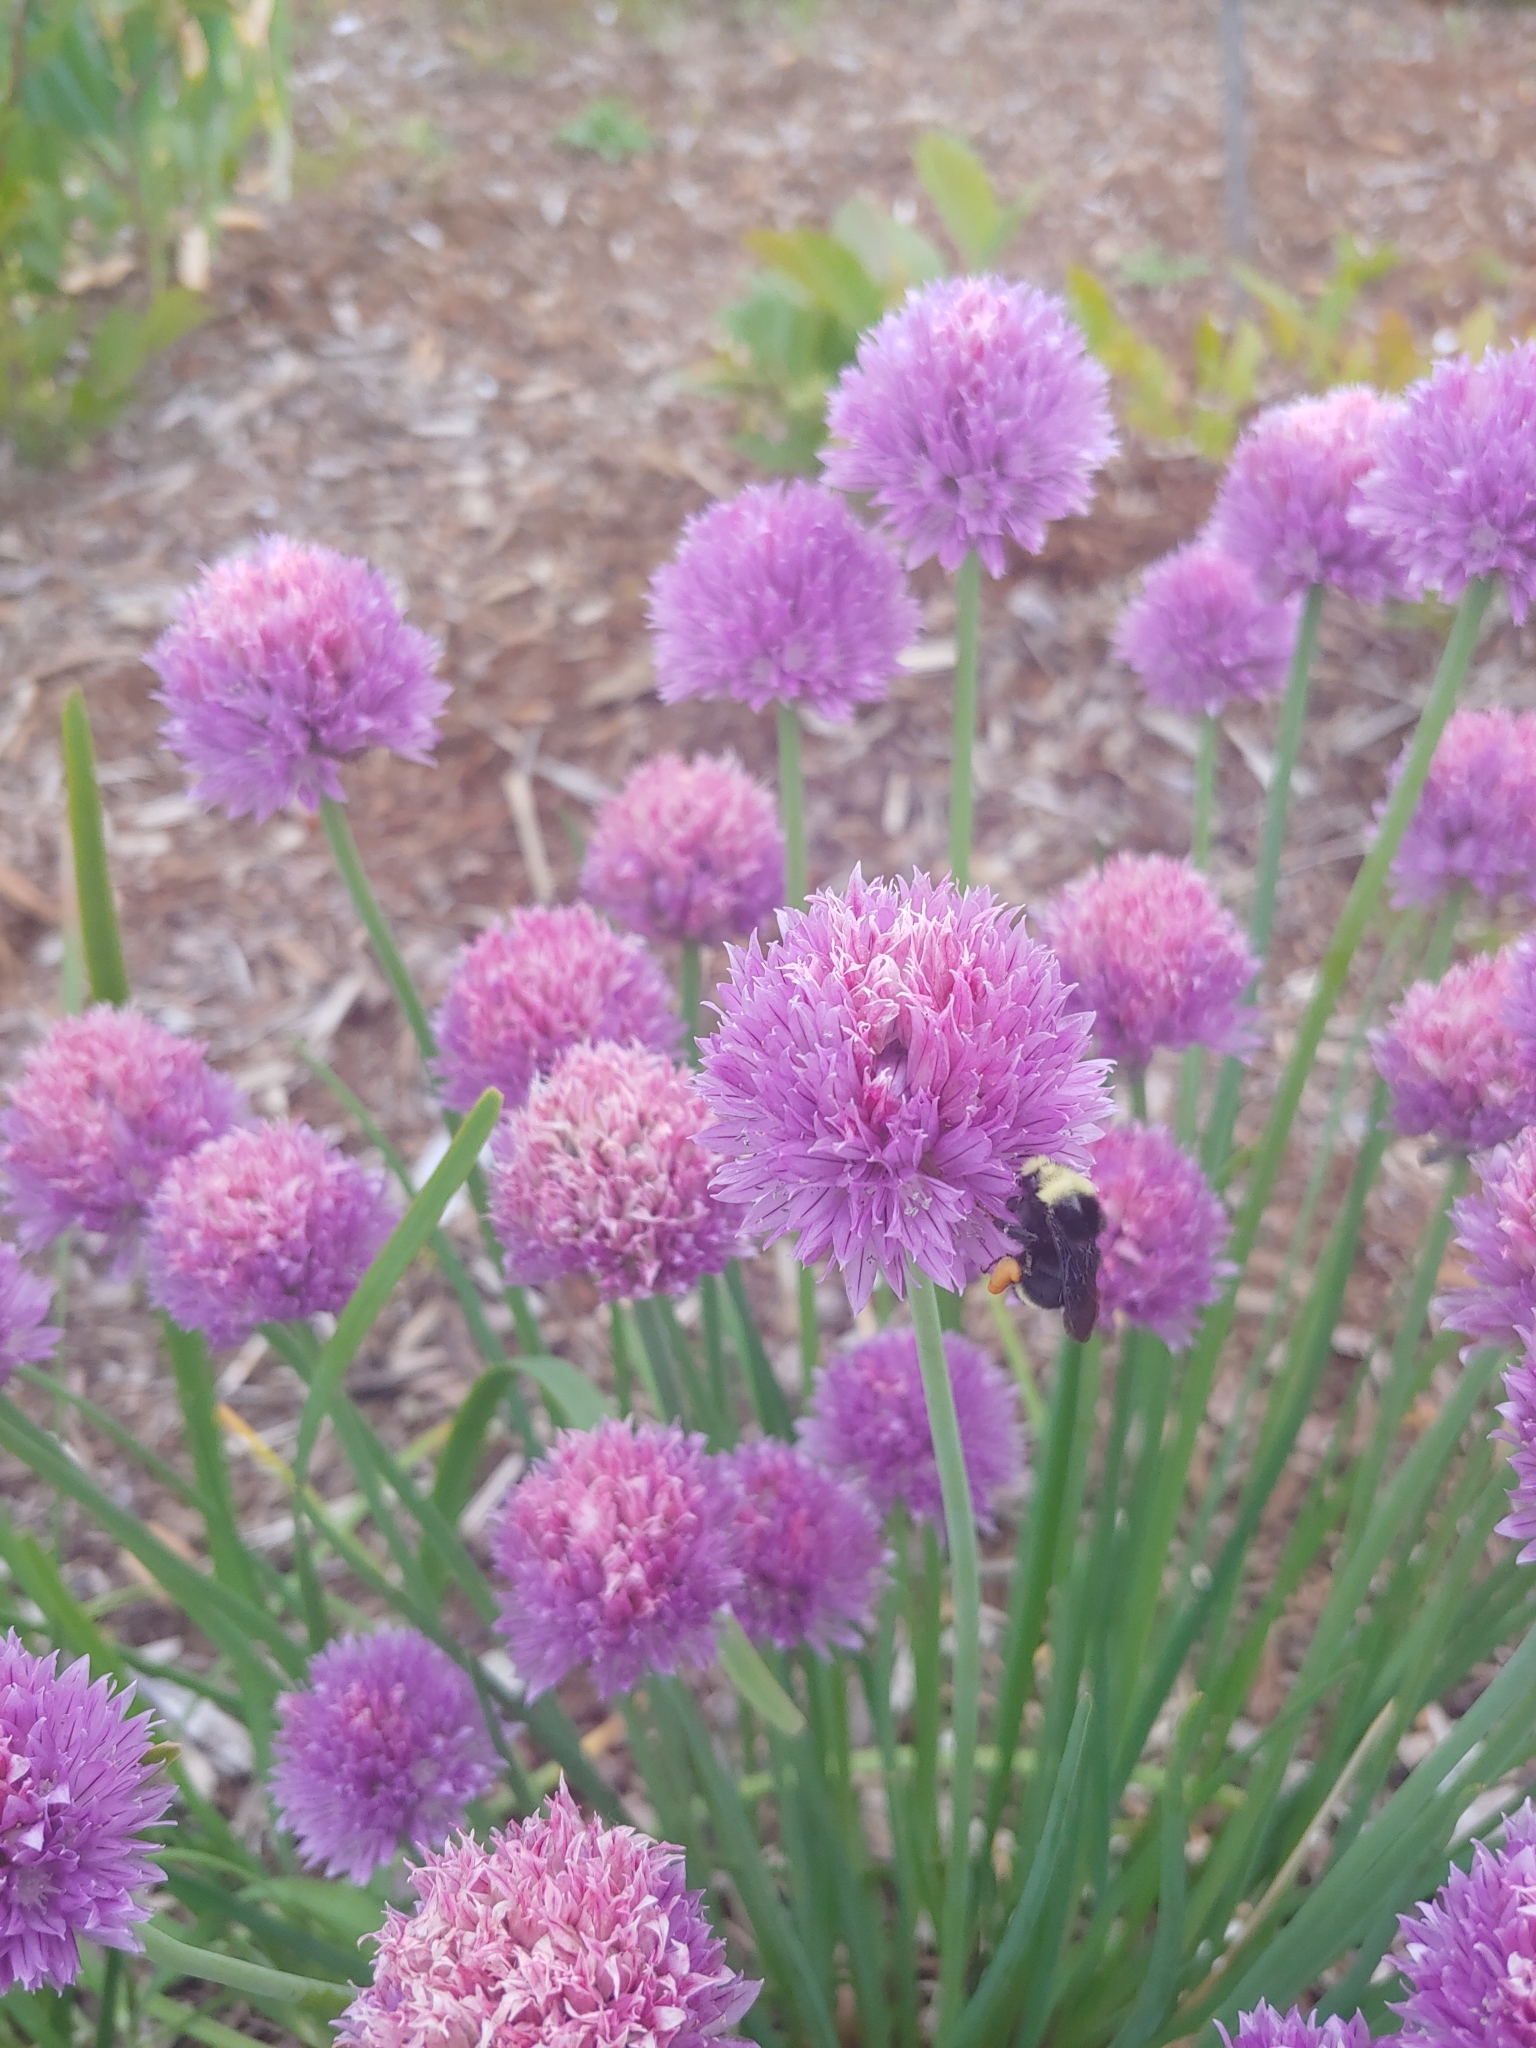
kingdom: Animalia
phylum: Arthropoda
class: Insecta
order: Hymenoptera
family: Apidae
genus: Bombus
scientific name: Bombus vosnesenskii
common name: Vosnesensky bumble bee
